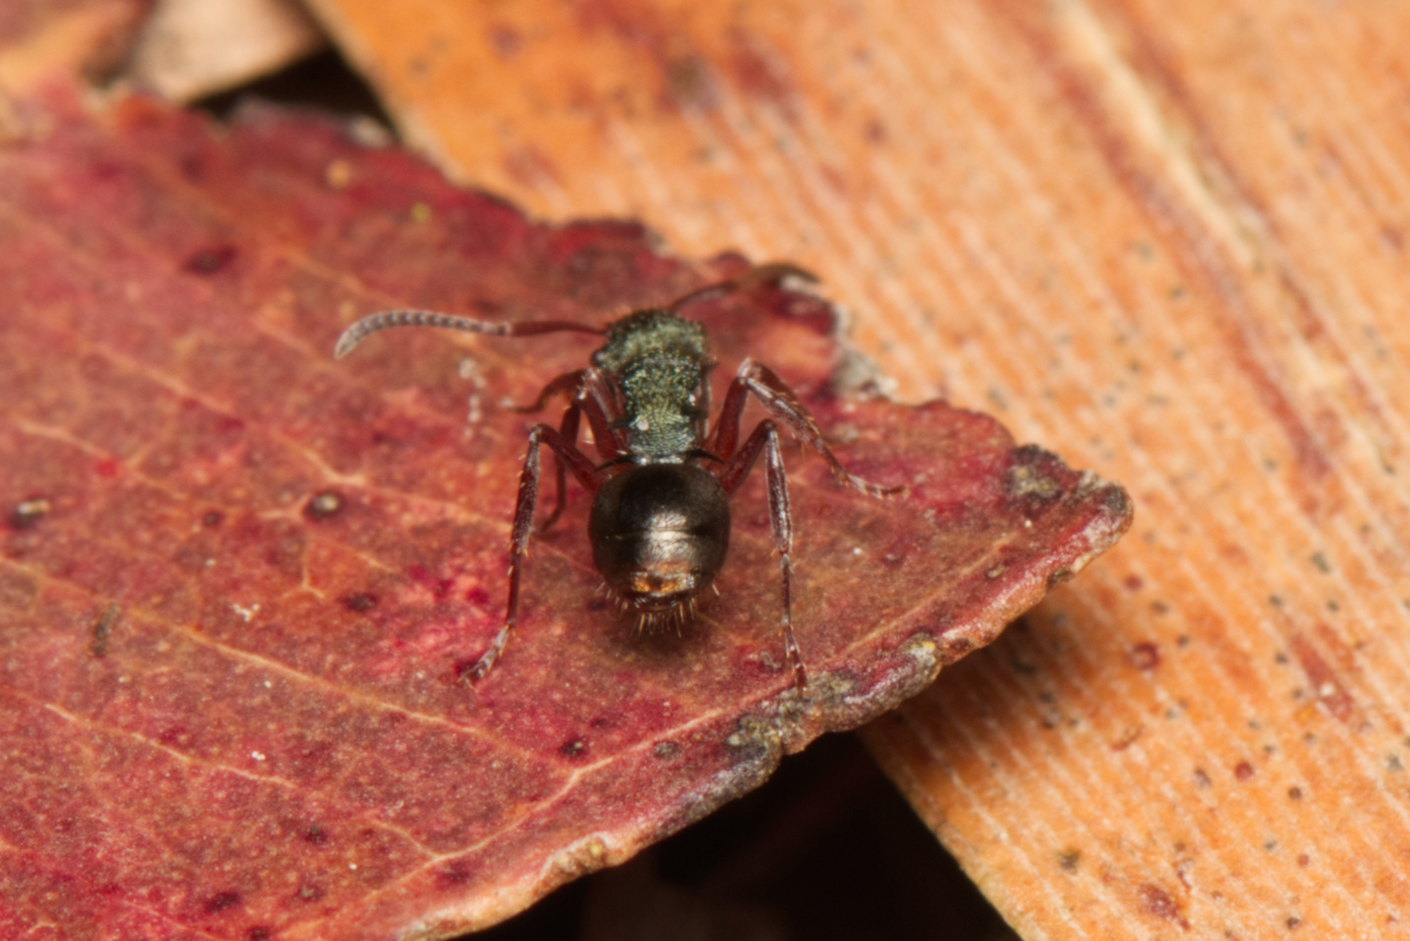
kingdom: Animalia
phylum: Arthropoda
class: Insecta
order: Hymenoptera
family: Formicidae
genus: Polyrhachis
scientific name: Polyrhachis hookeri
